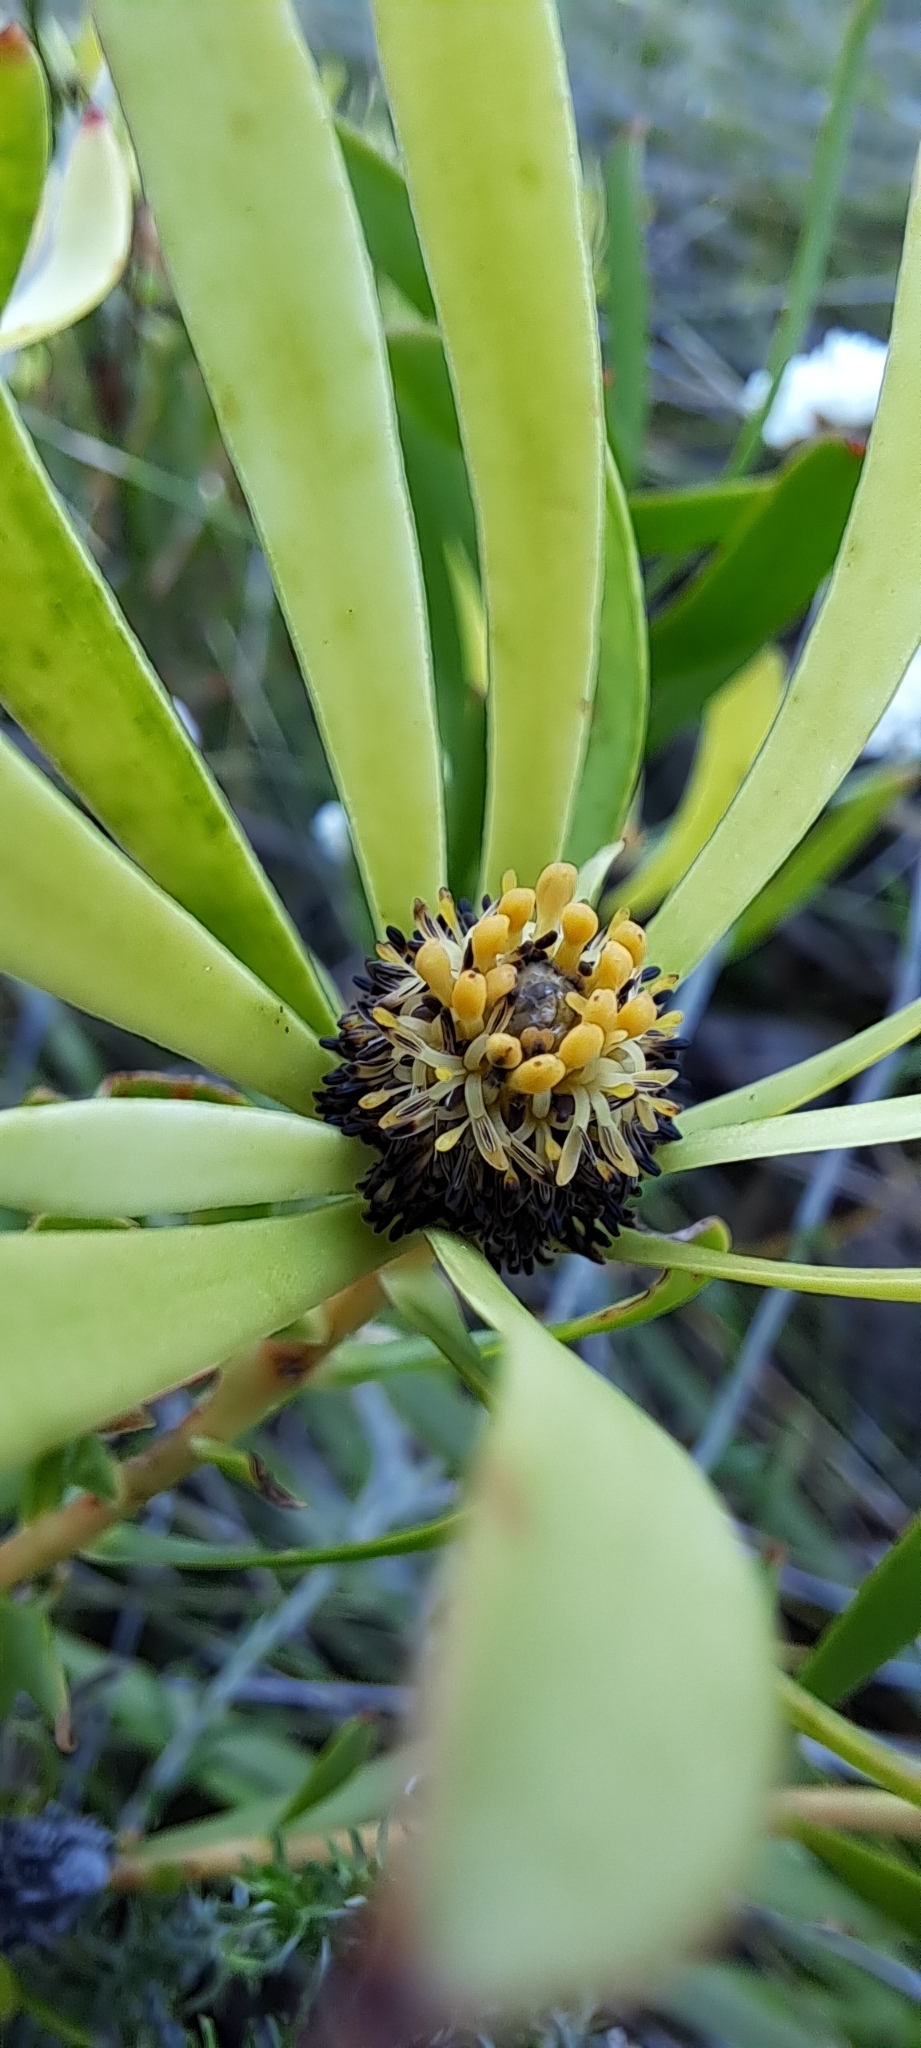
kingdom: Plantae
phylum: Tracheophyta
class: Magnoliopsida
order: Proteales
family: Proteaceae
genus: Leucadendron
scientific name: Leucadendron salignum
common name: Common sunshine conebush
